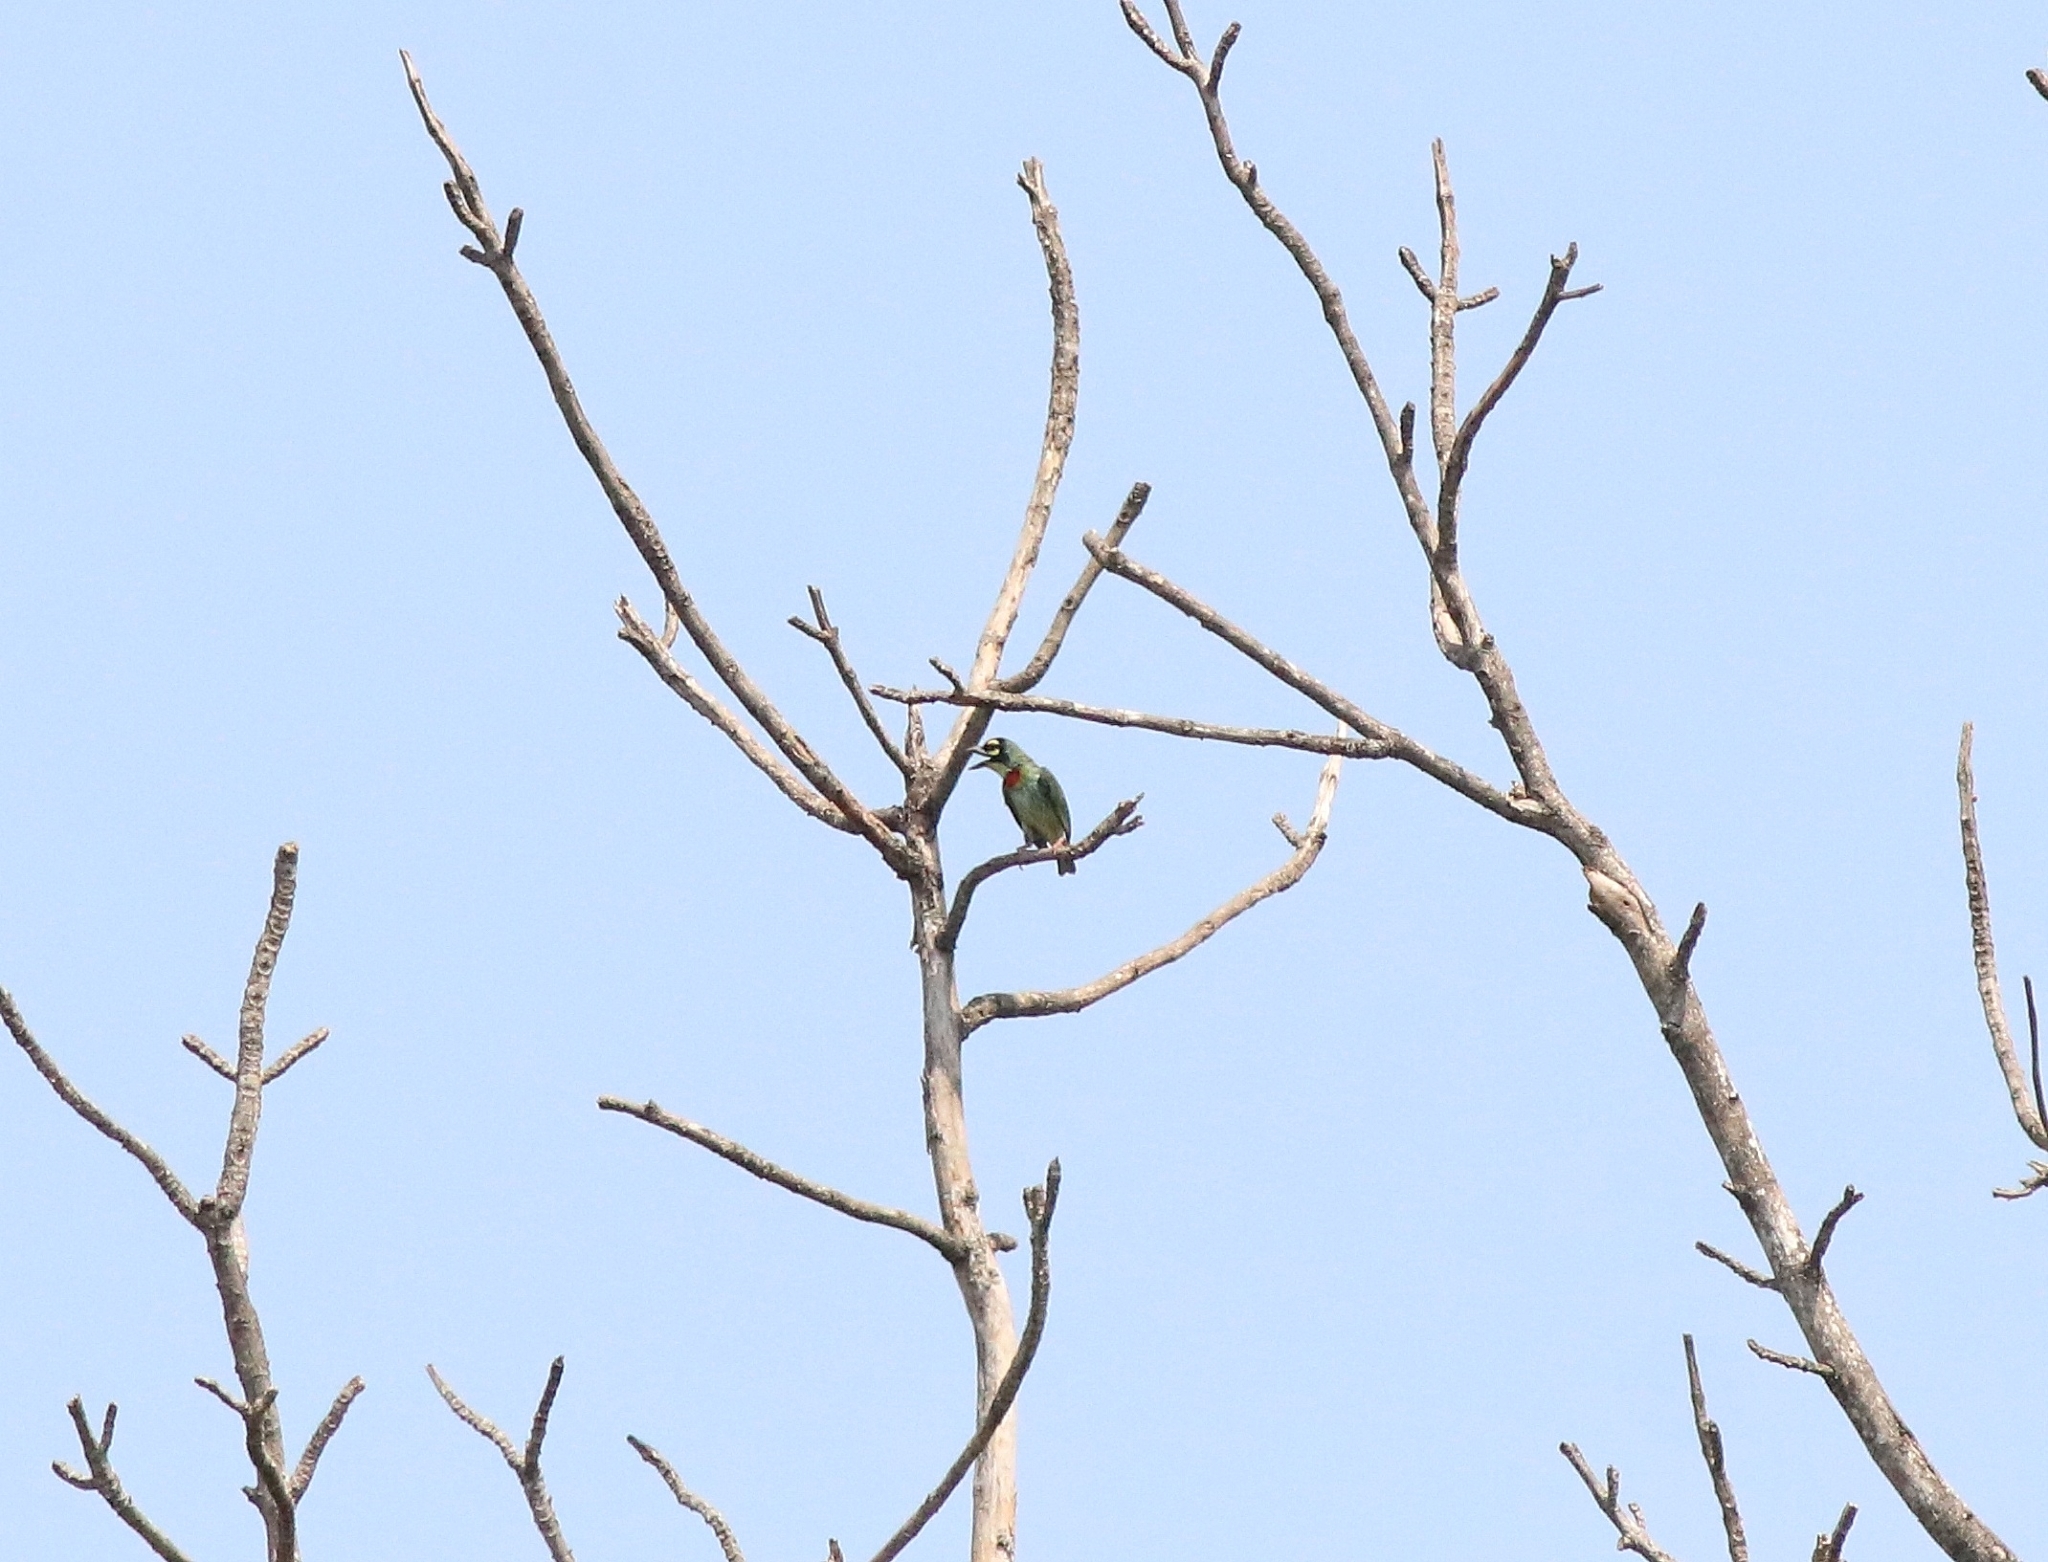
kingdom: Animalia
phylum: Chordata
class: Aves
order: Piciformes
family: Megalaimidae
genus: Psilopogon
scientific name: Psilopogon haemacephalus
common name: Coppersmith barbet
